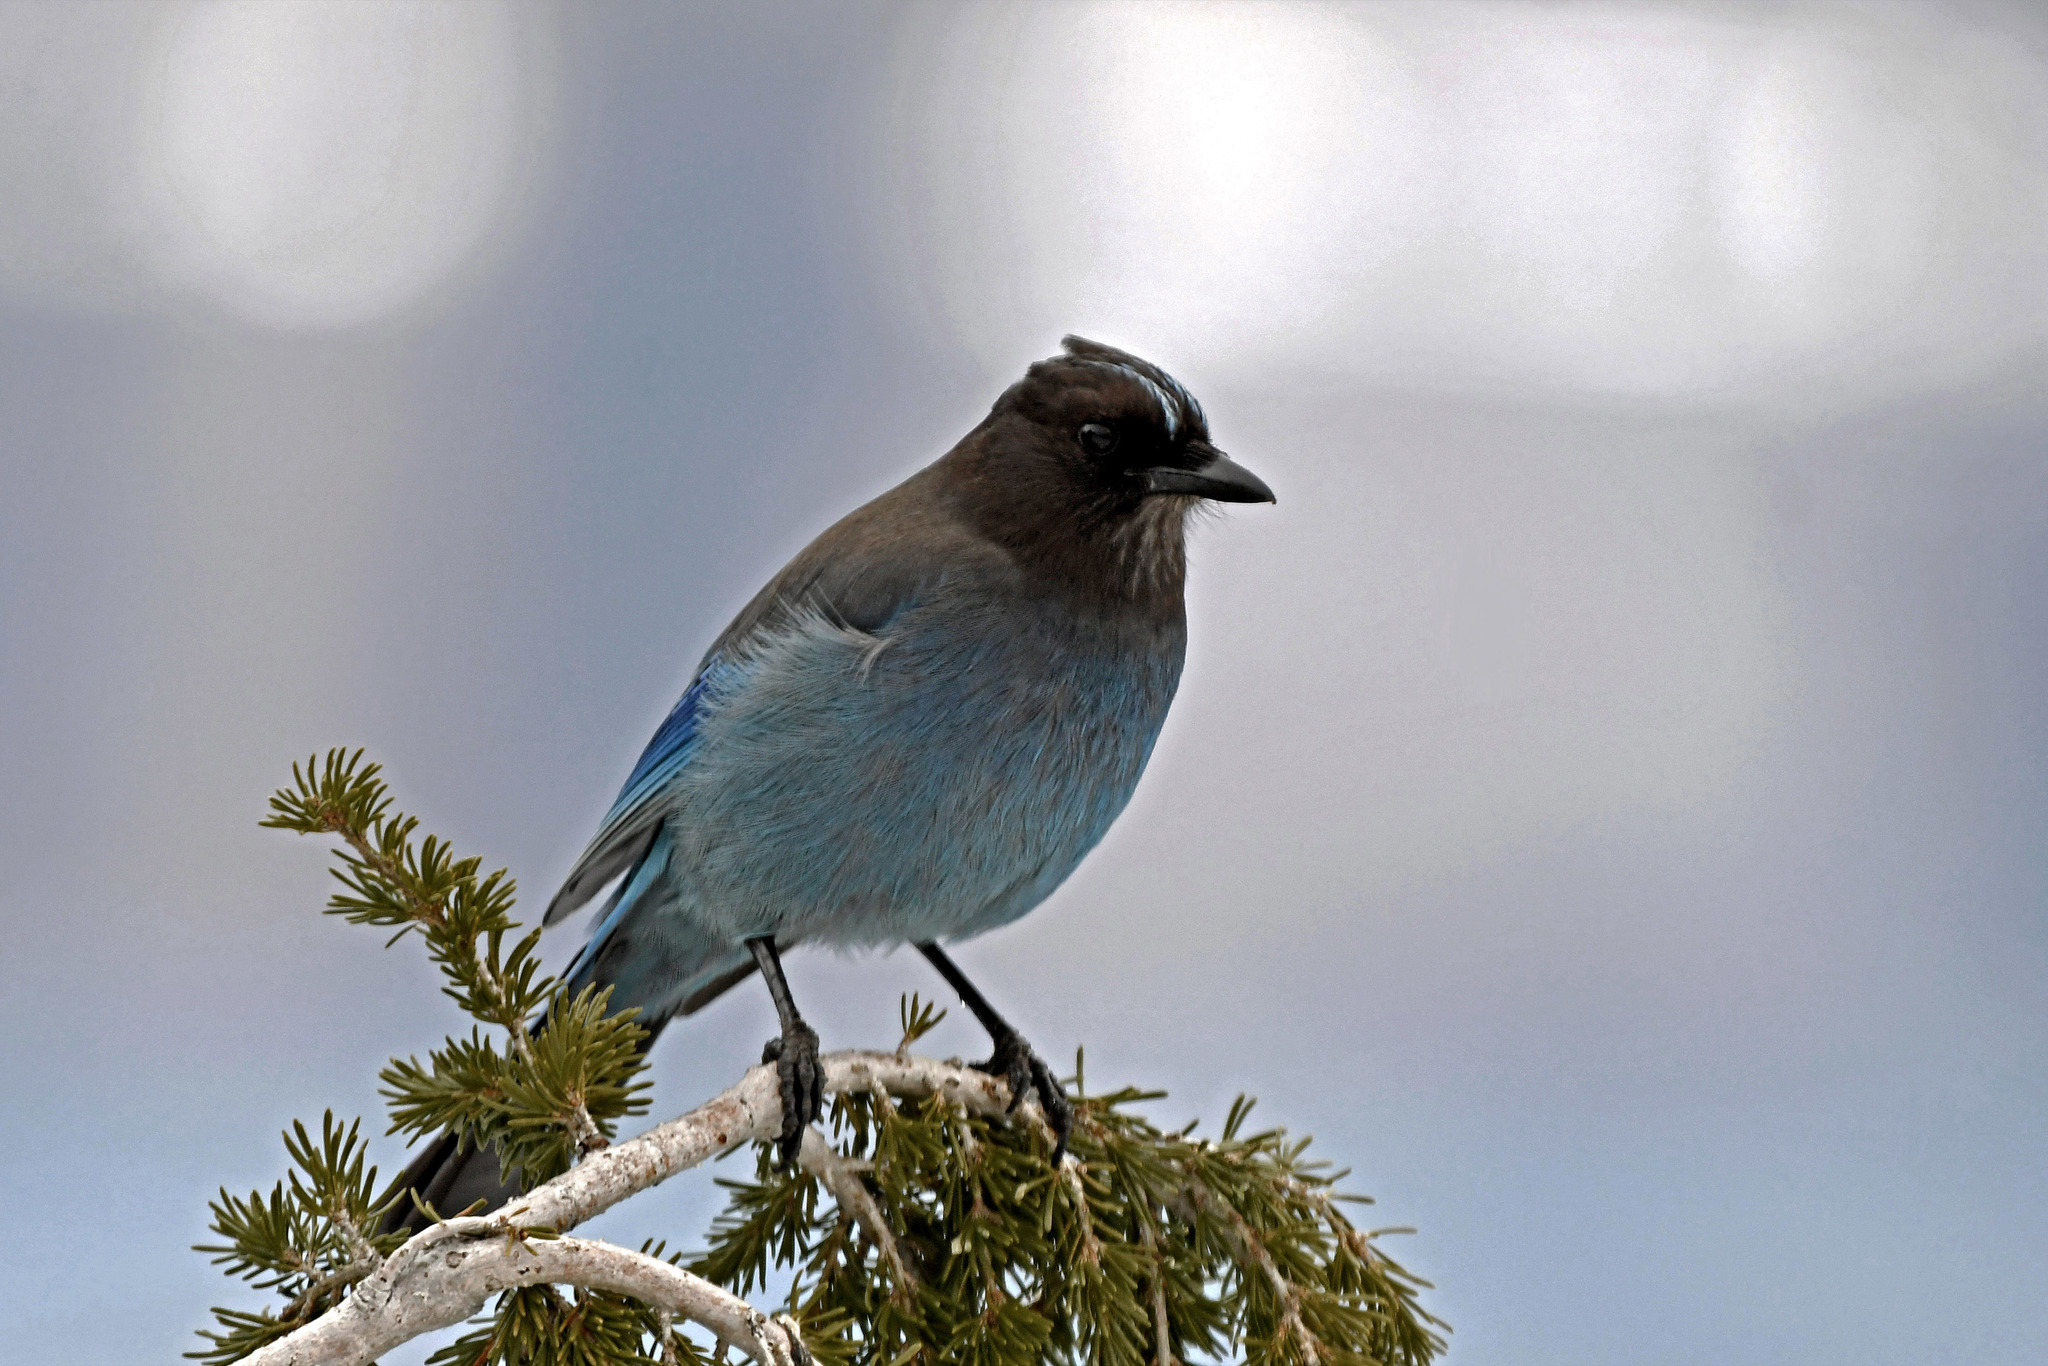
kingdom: Animalia
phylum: Chordata
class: Aves
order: Passeriformes
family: Corvidae
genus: Cyanocitta
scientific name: Cyanocitta stelleri
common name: Steller's jay
